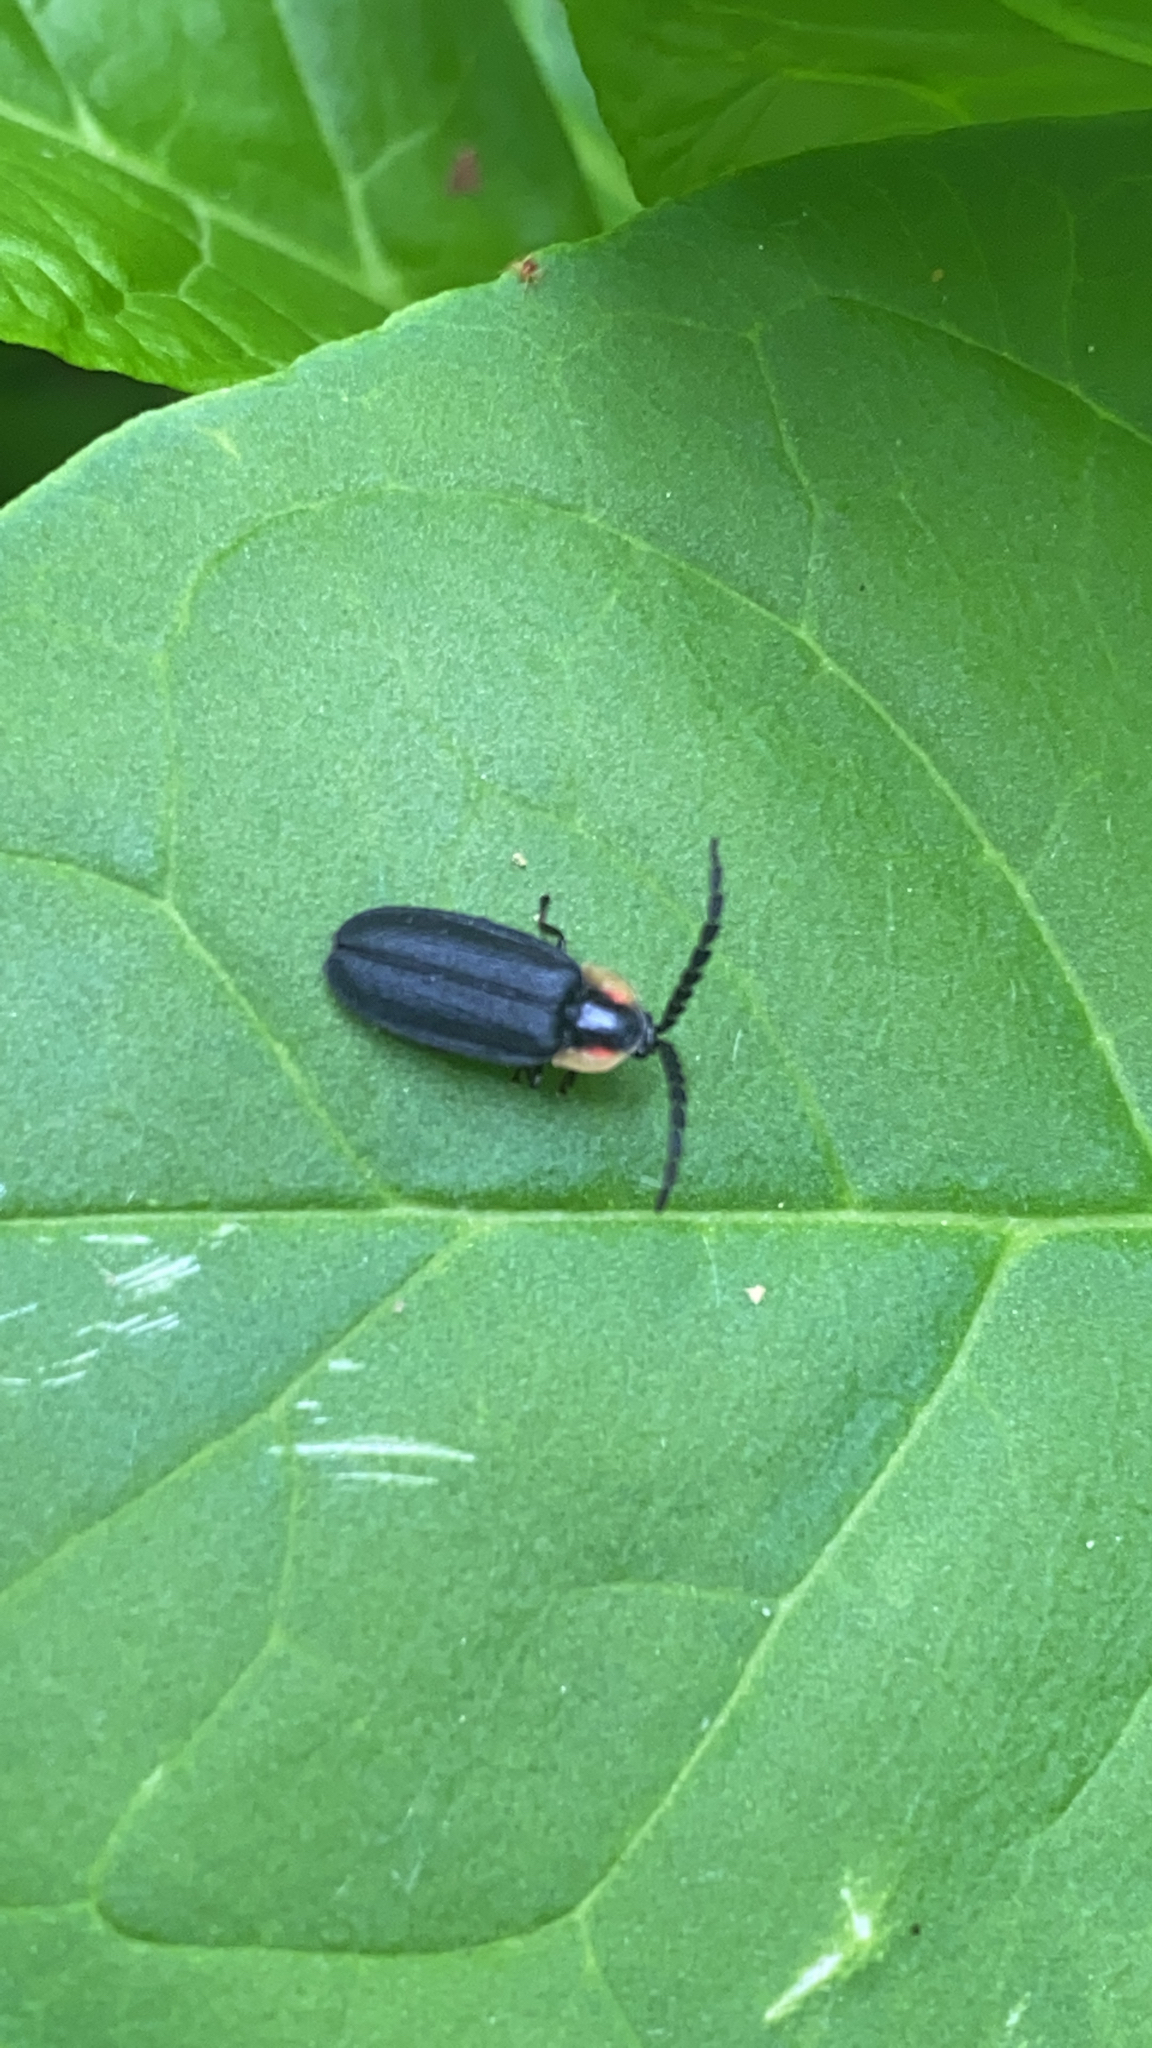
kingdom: Animalia
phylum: Arthropoda
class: Insecta
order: Coleoptera
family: Lampyridae
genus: Lucidota
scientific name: Lucidota atra
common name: Black firefly
